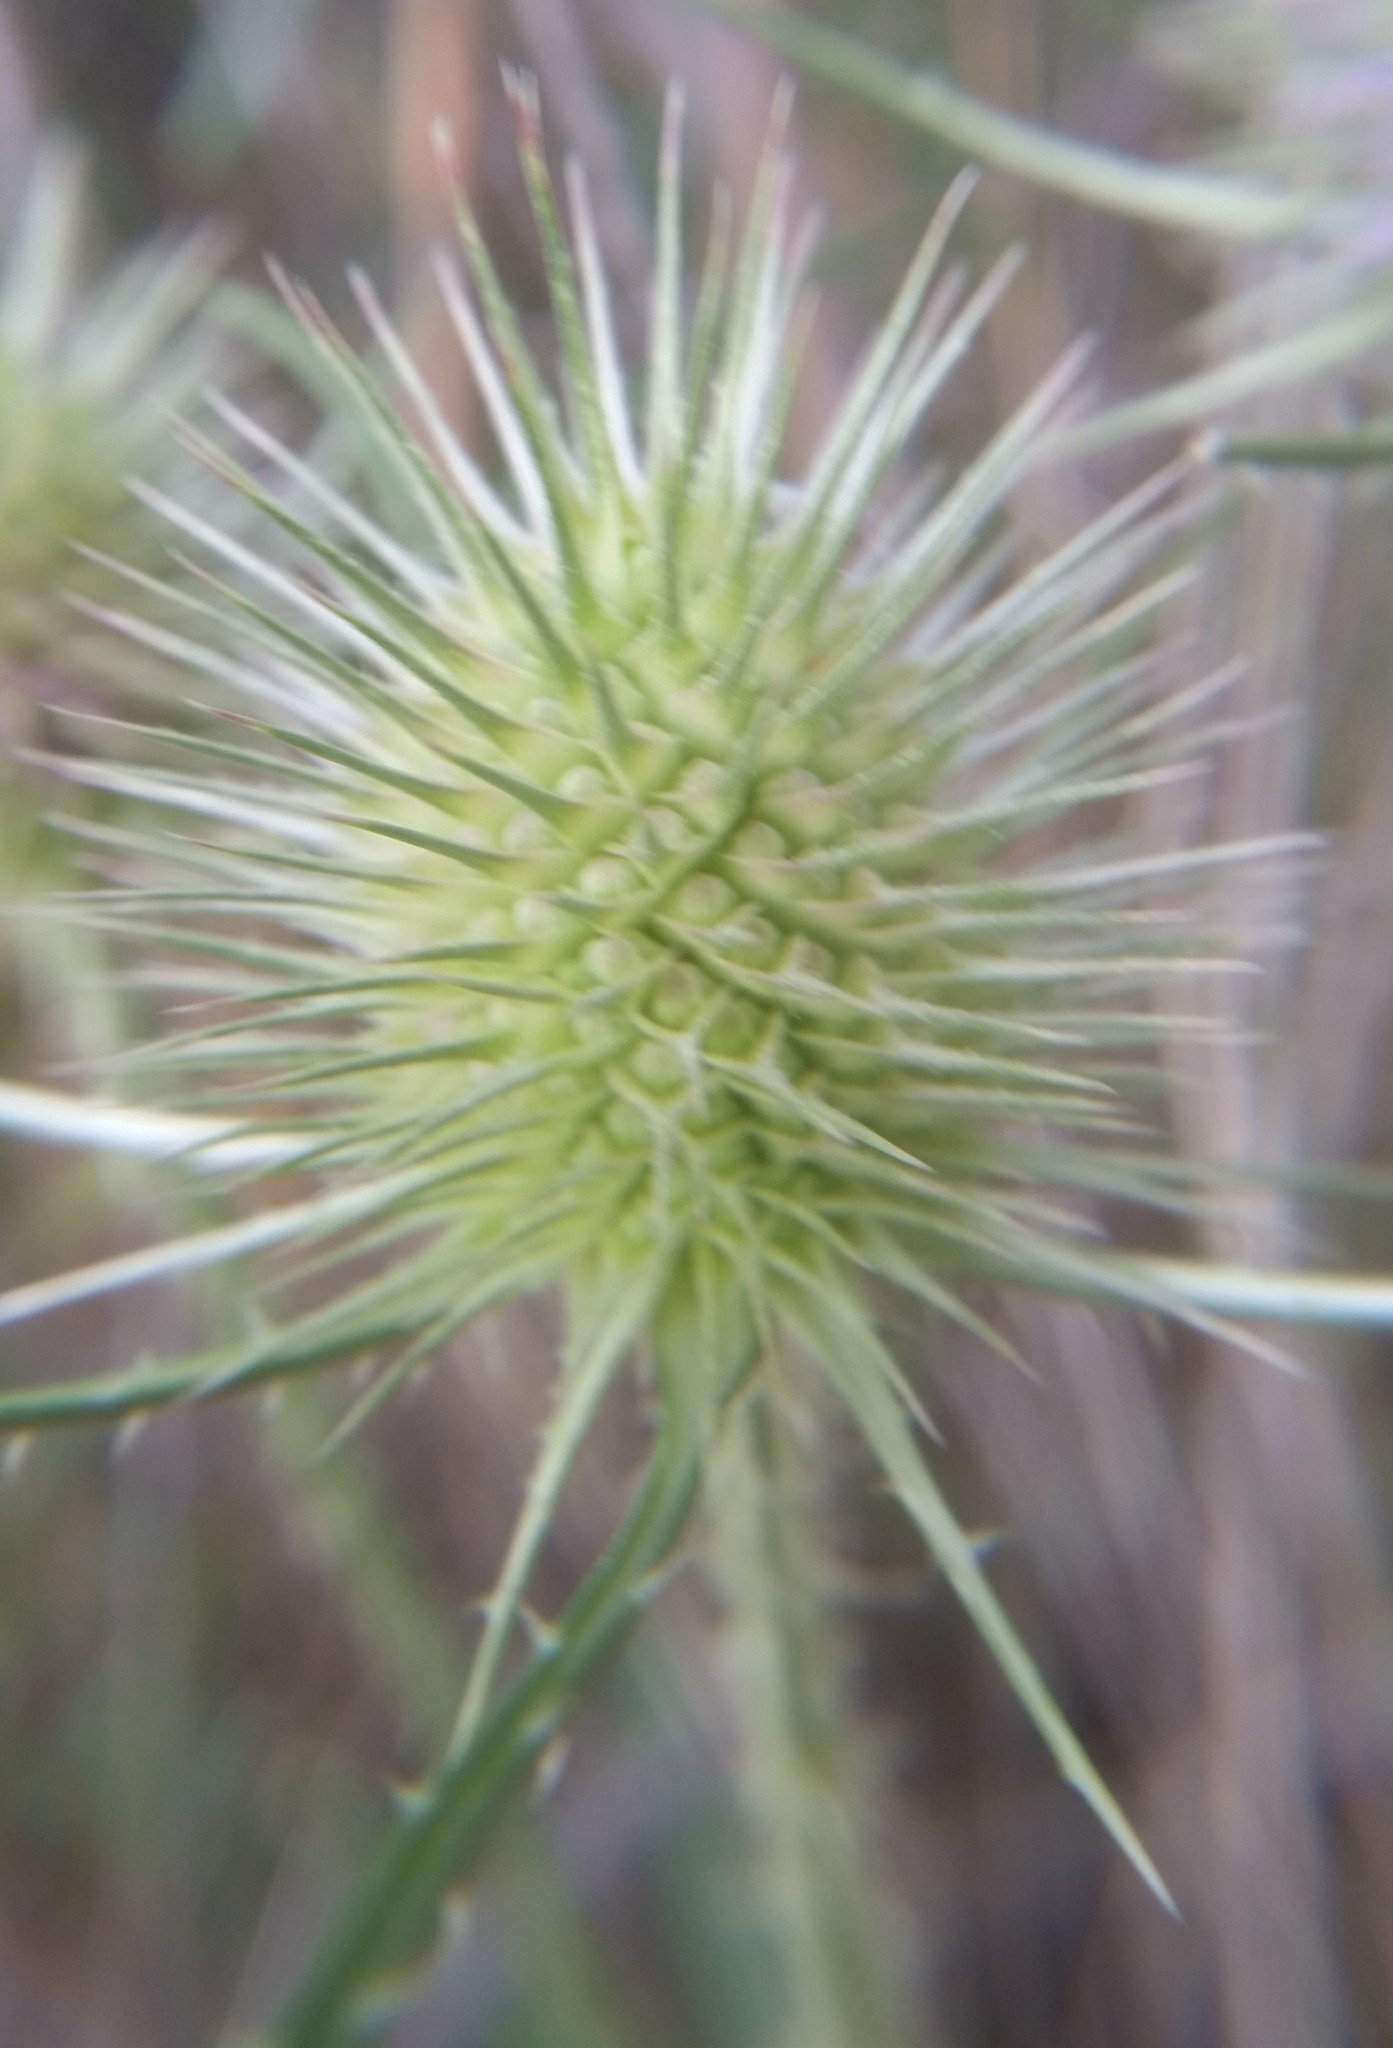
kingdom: Plantae
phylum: Tracheophyta
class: Magnoliopsida
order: Dipsacales
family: Caprifoliaceae
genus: Dipsacus
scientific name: Dipsacus fullonum
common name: Teasel
